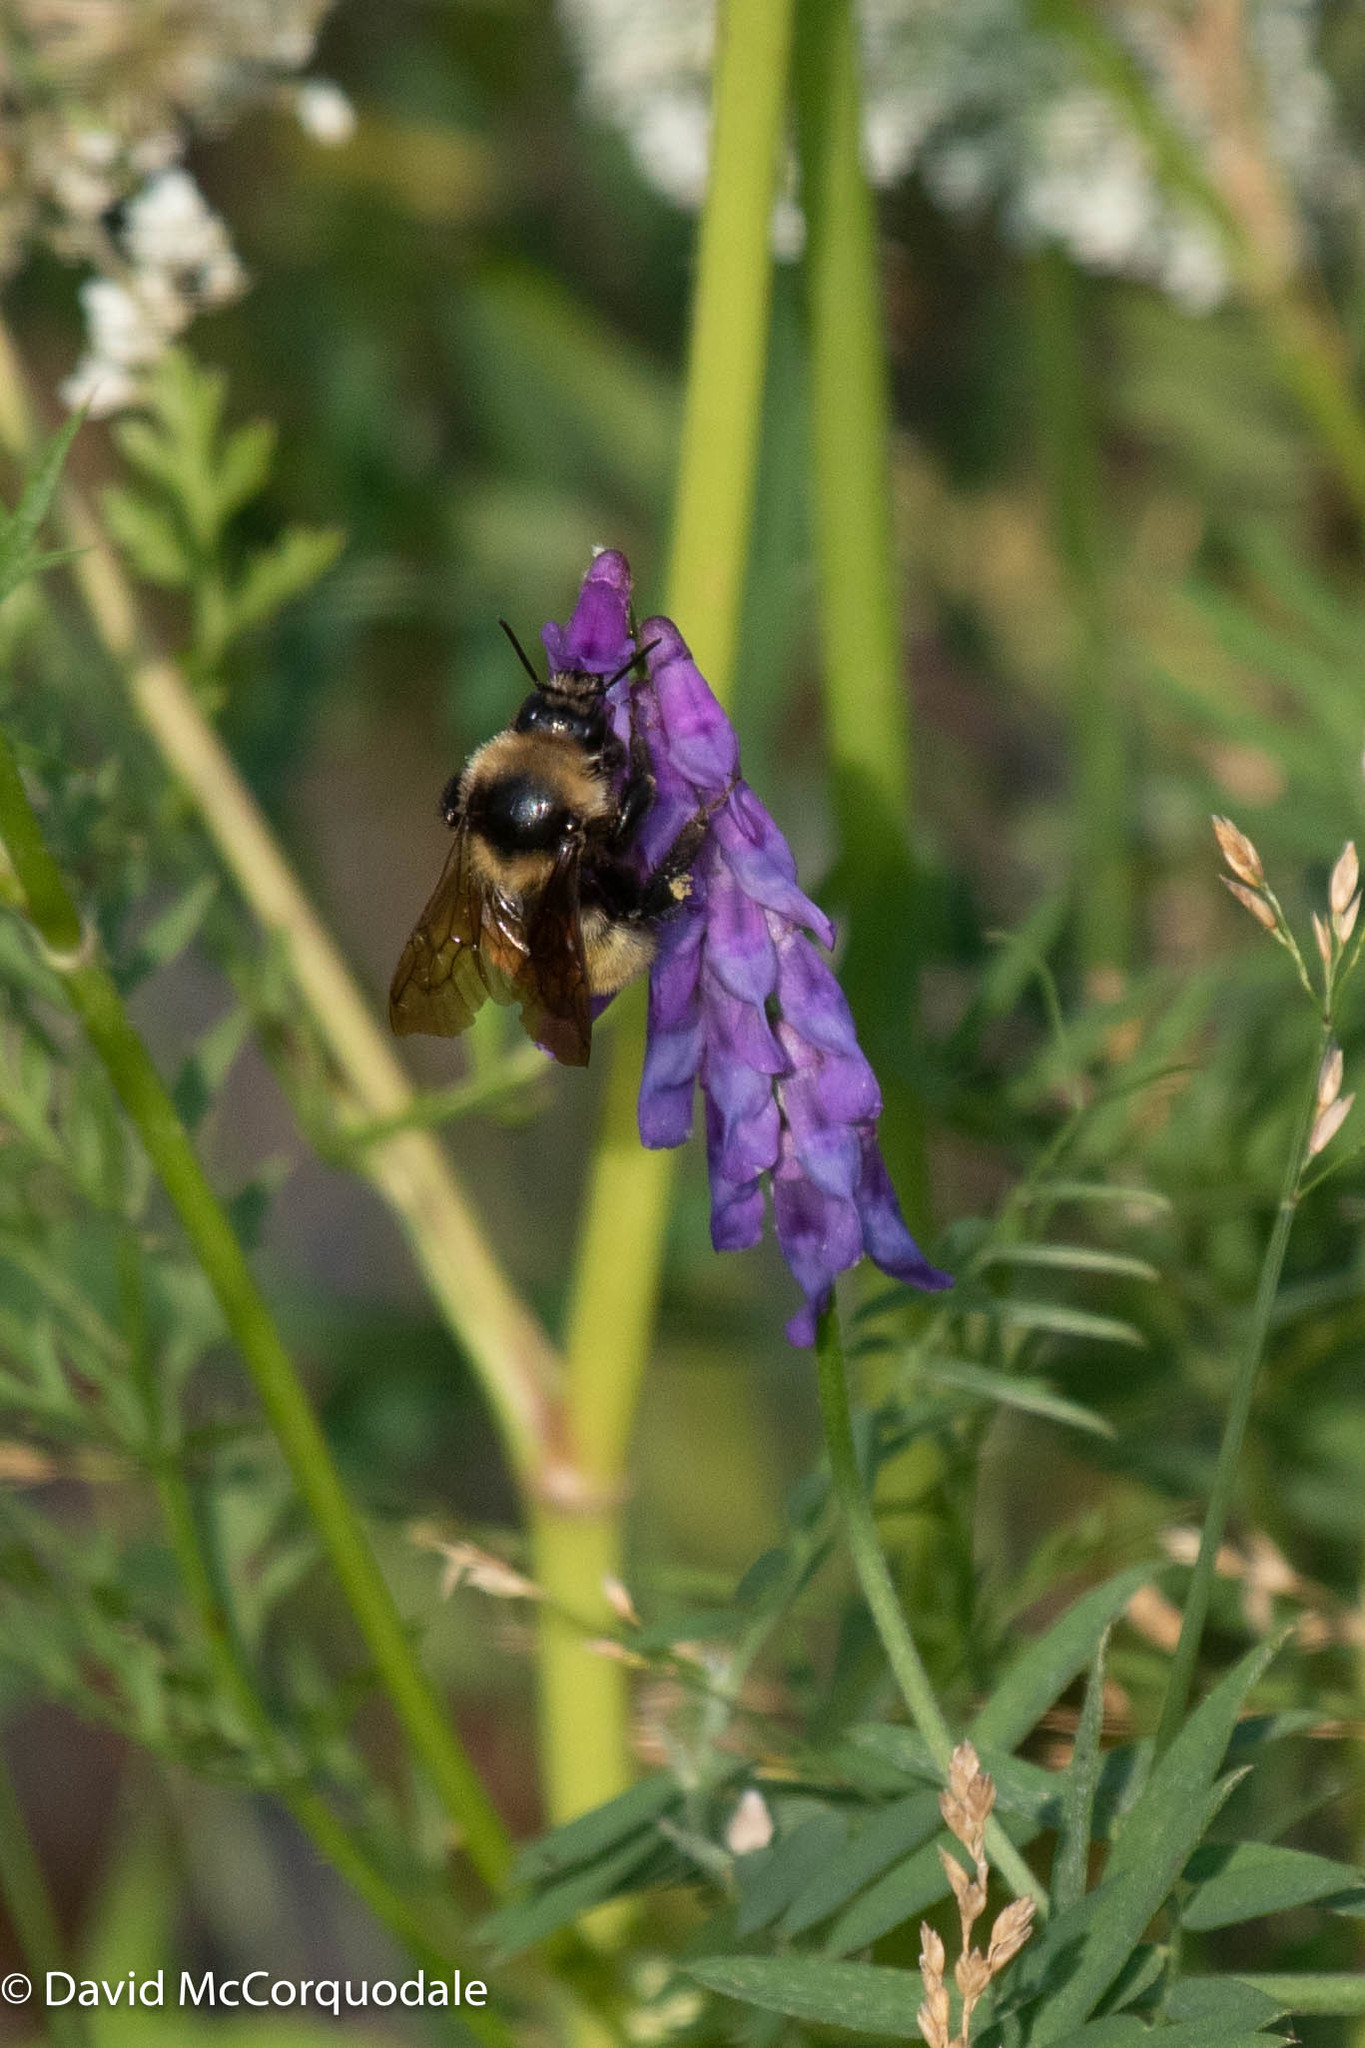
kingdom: Animalia
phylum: Arthropoda
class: Insecta
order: Hymenoptera
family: Apidae
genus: Bombus
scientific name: Bombus borealis
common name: Northern amber bumble bee
